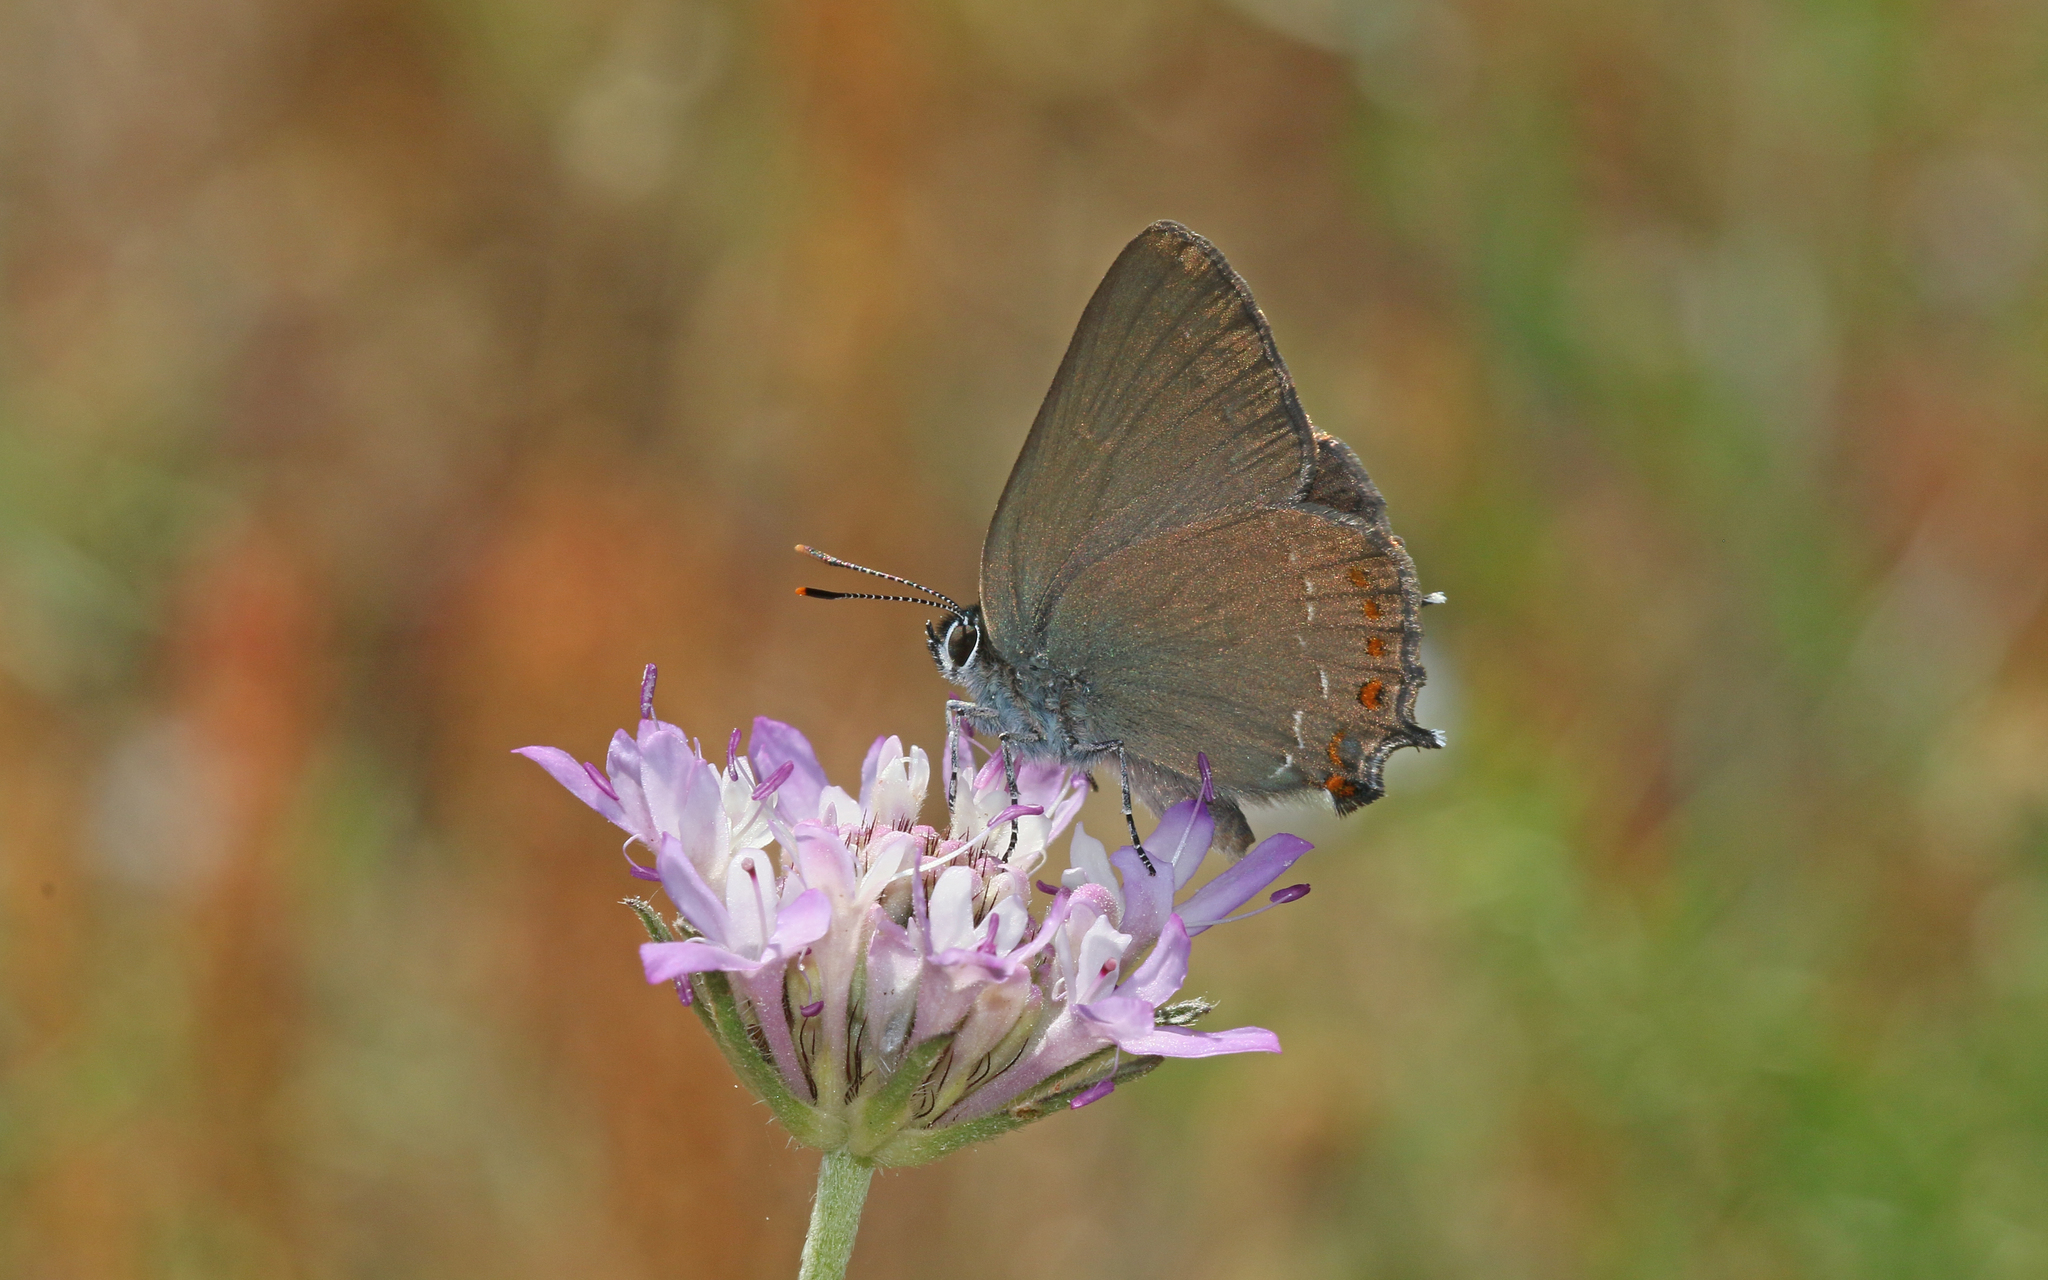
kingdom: Animalia
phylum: Arthropoda
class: Insecta
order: Lepidoptera
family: Lycaenidae
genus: Fixsenia
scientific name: Fixsenia esculi
